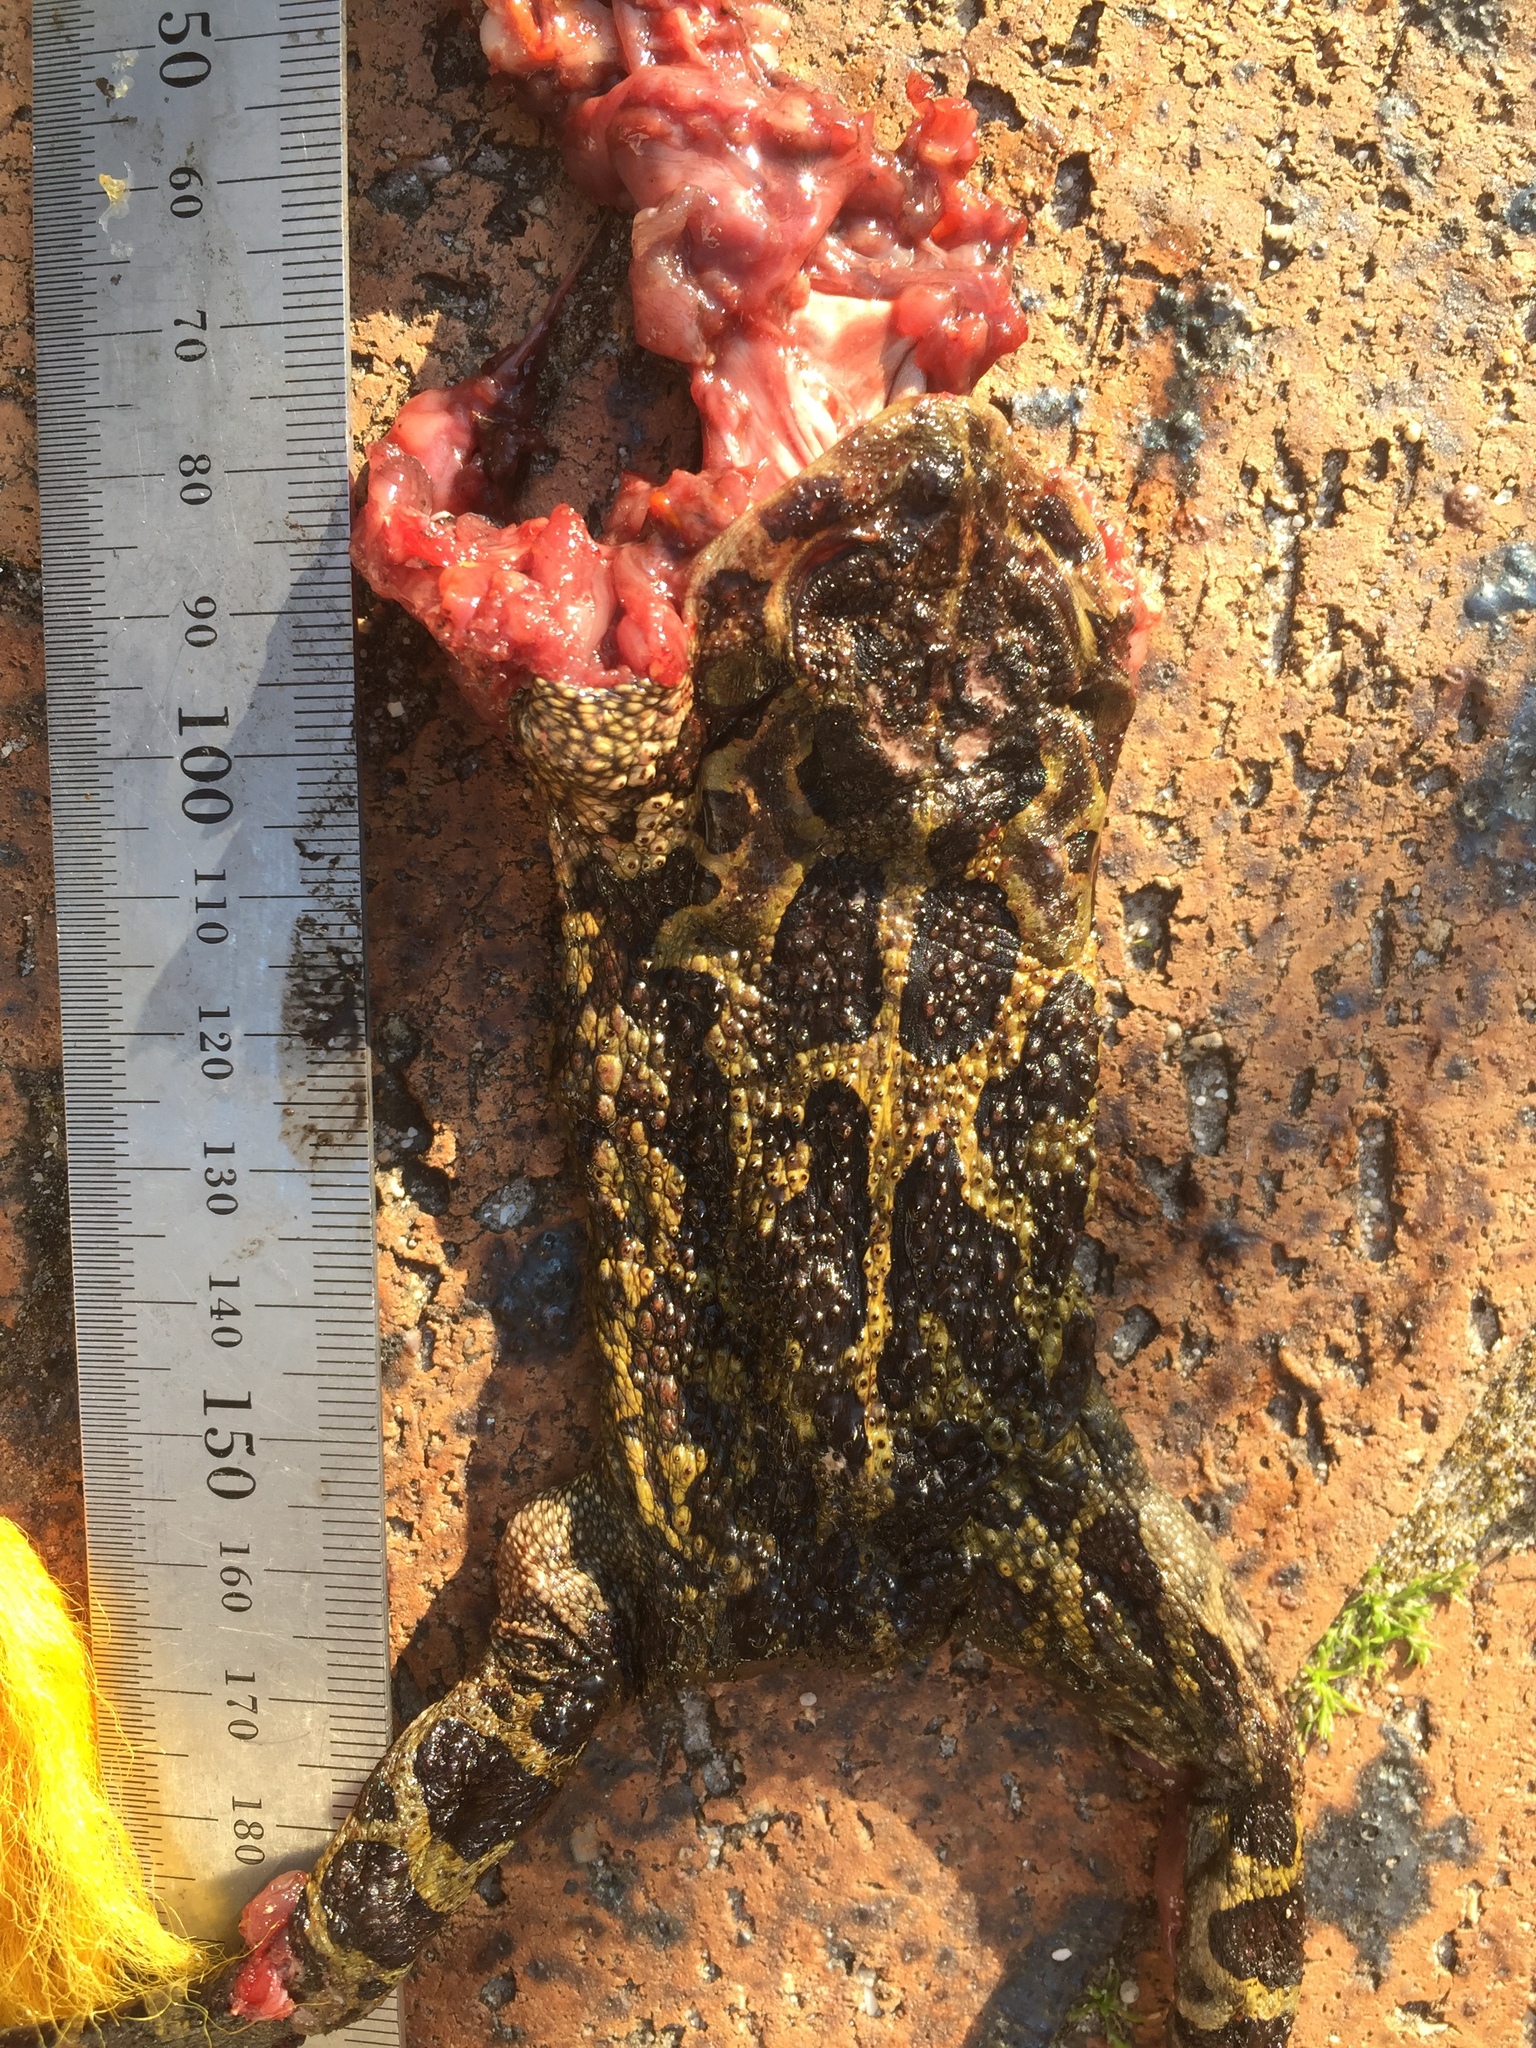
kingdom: Animalia
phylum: Chordata
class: Amphibia
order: Anura
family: Bufonidae
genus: Sclerophrys
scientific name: Sclerophrys pantherina
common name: Panther toad
